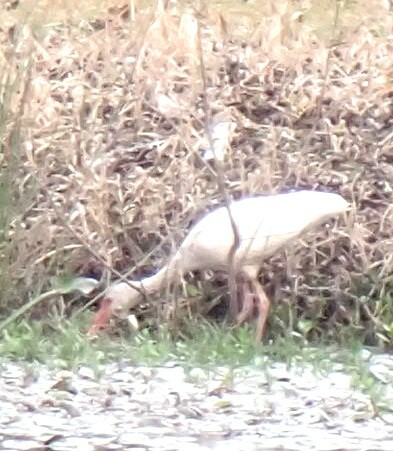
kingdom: Animalia
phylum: Chordata
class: Aves
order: Pelecaniformes
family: Threskiornithidae
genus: Eudocimus
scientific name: Eudocimus albus
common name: White ibis
